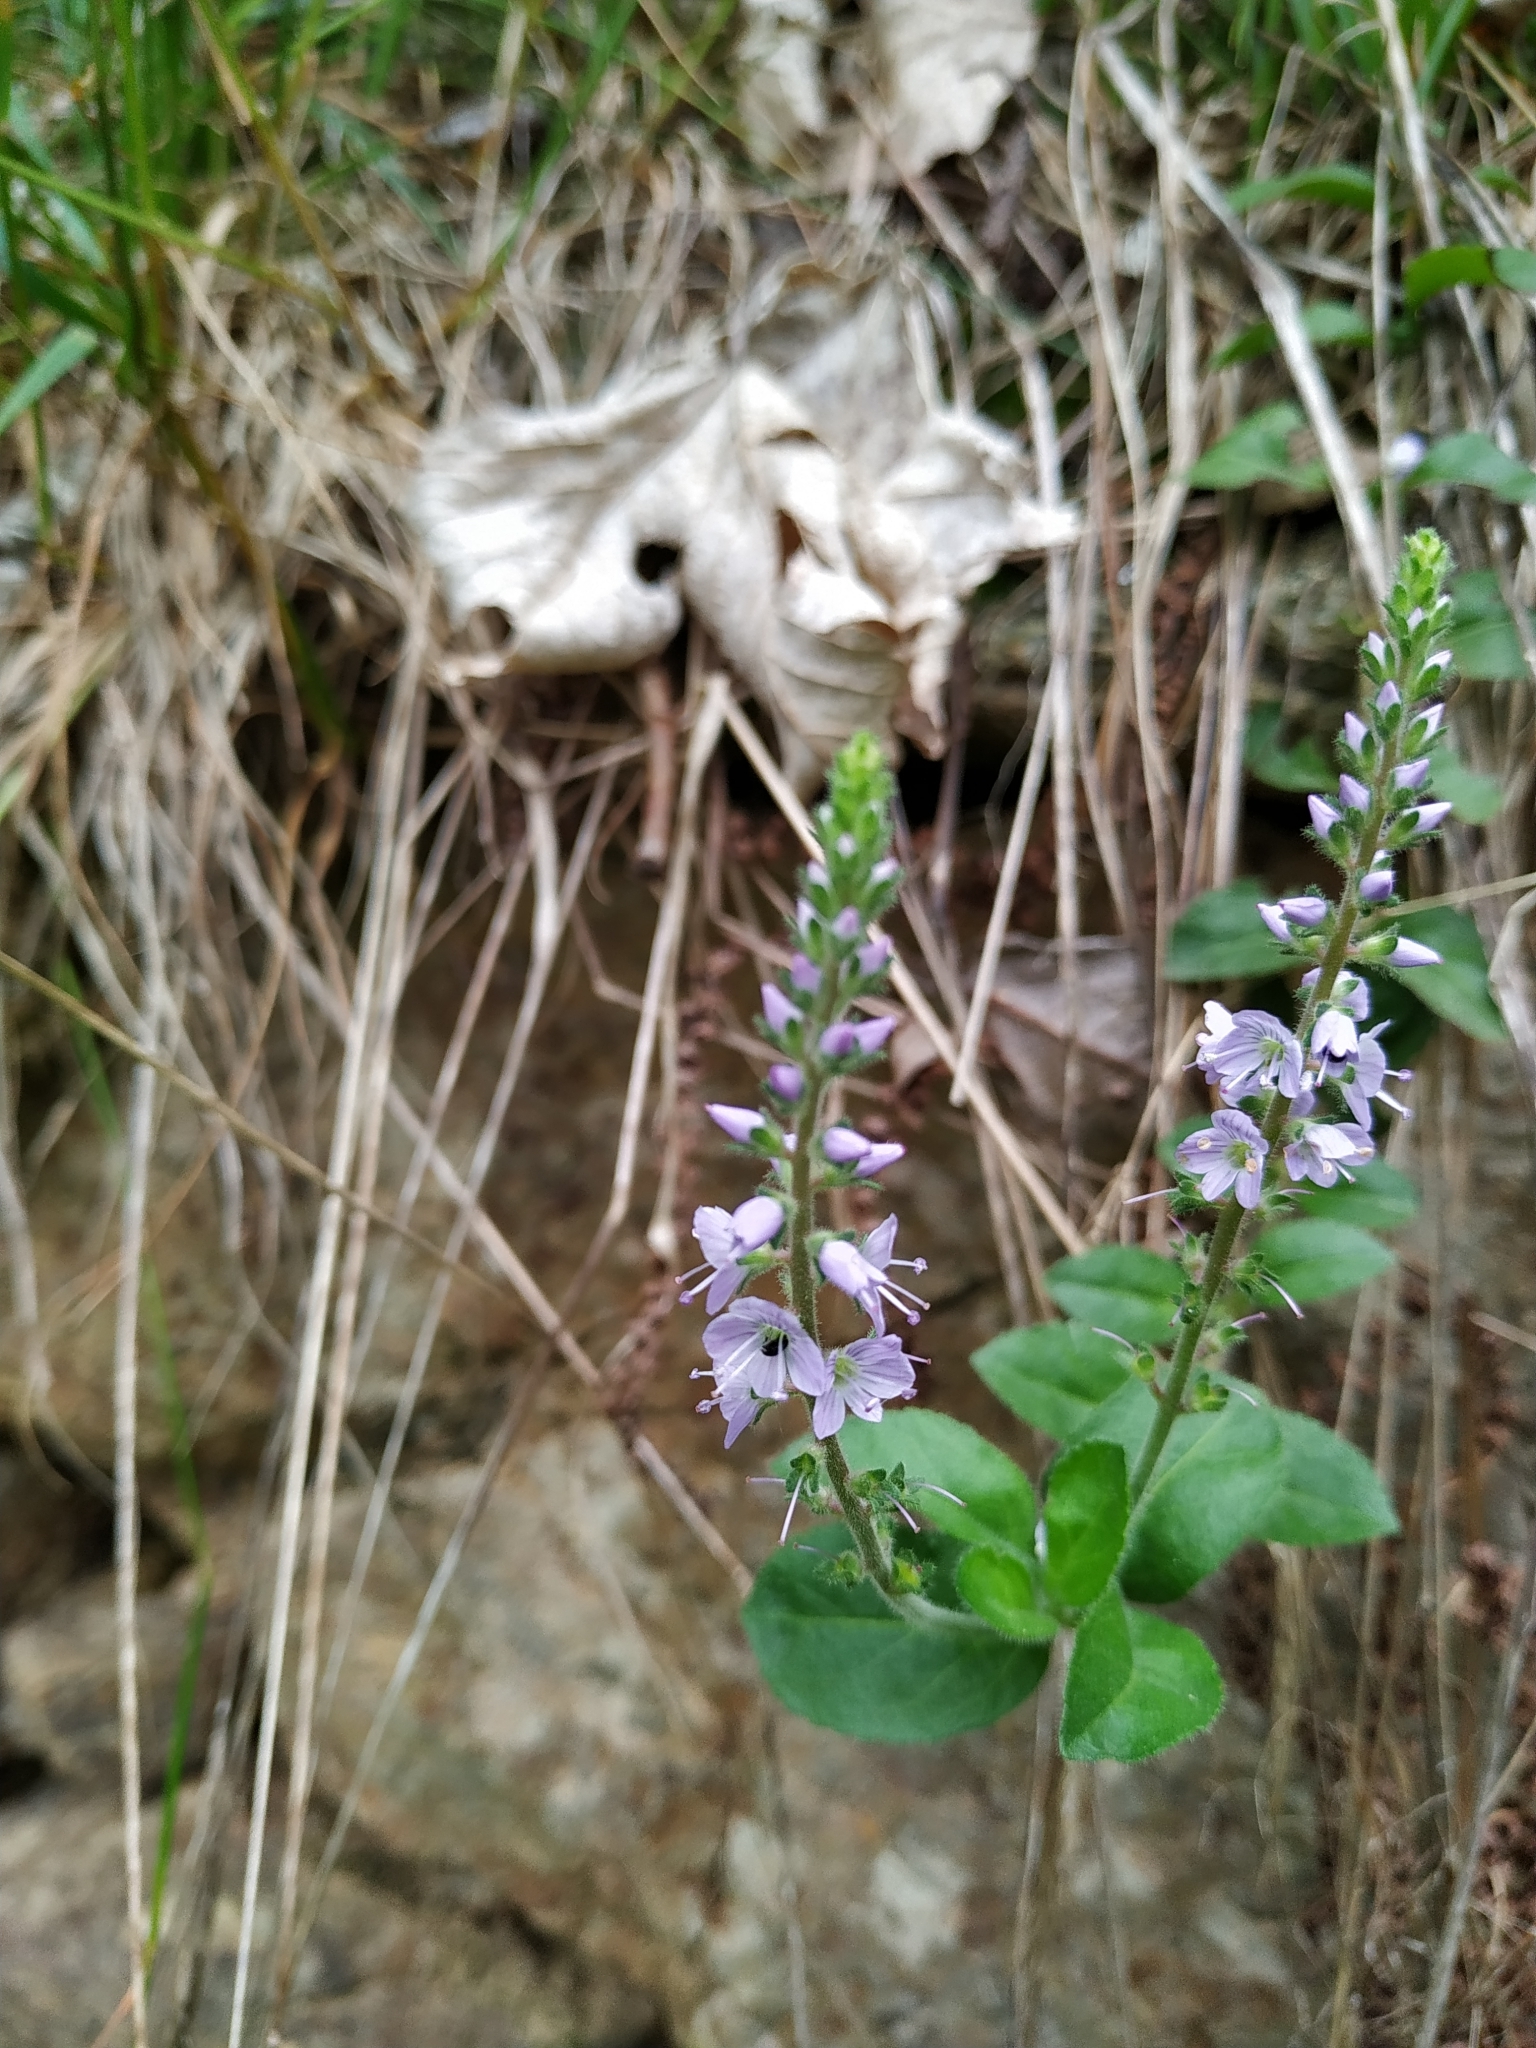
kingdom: Plantae
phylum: Tracheophyta
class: Magnoliopsida
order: Lamiales
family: Plantaginaceae
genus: Veronica
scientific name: Veronica officinalis
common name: Common speedwell
